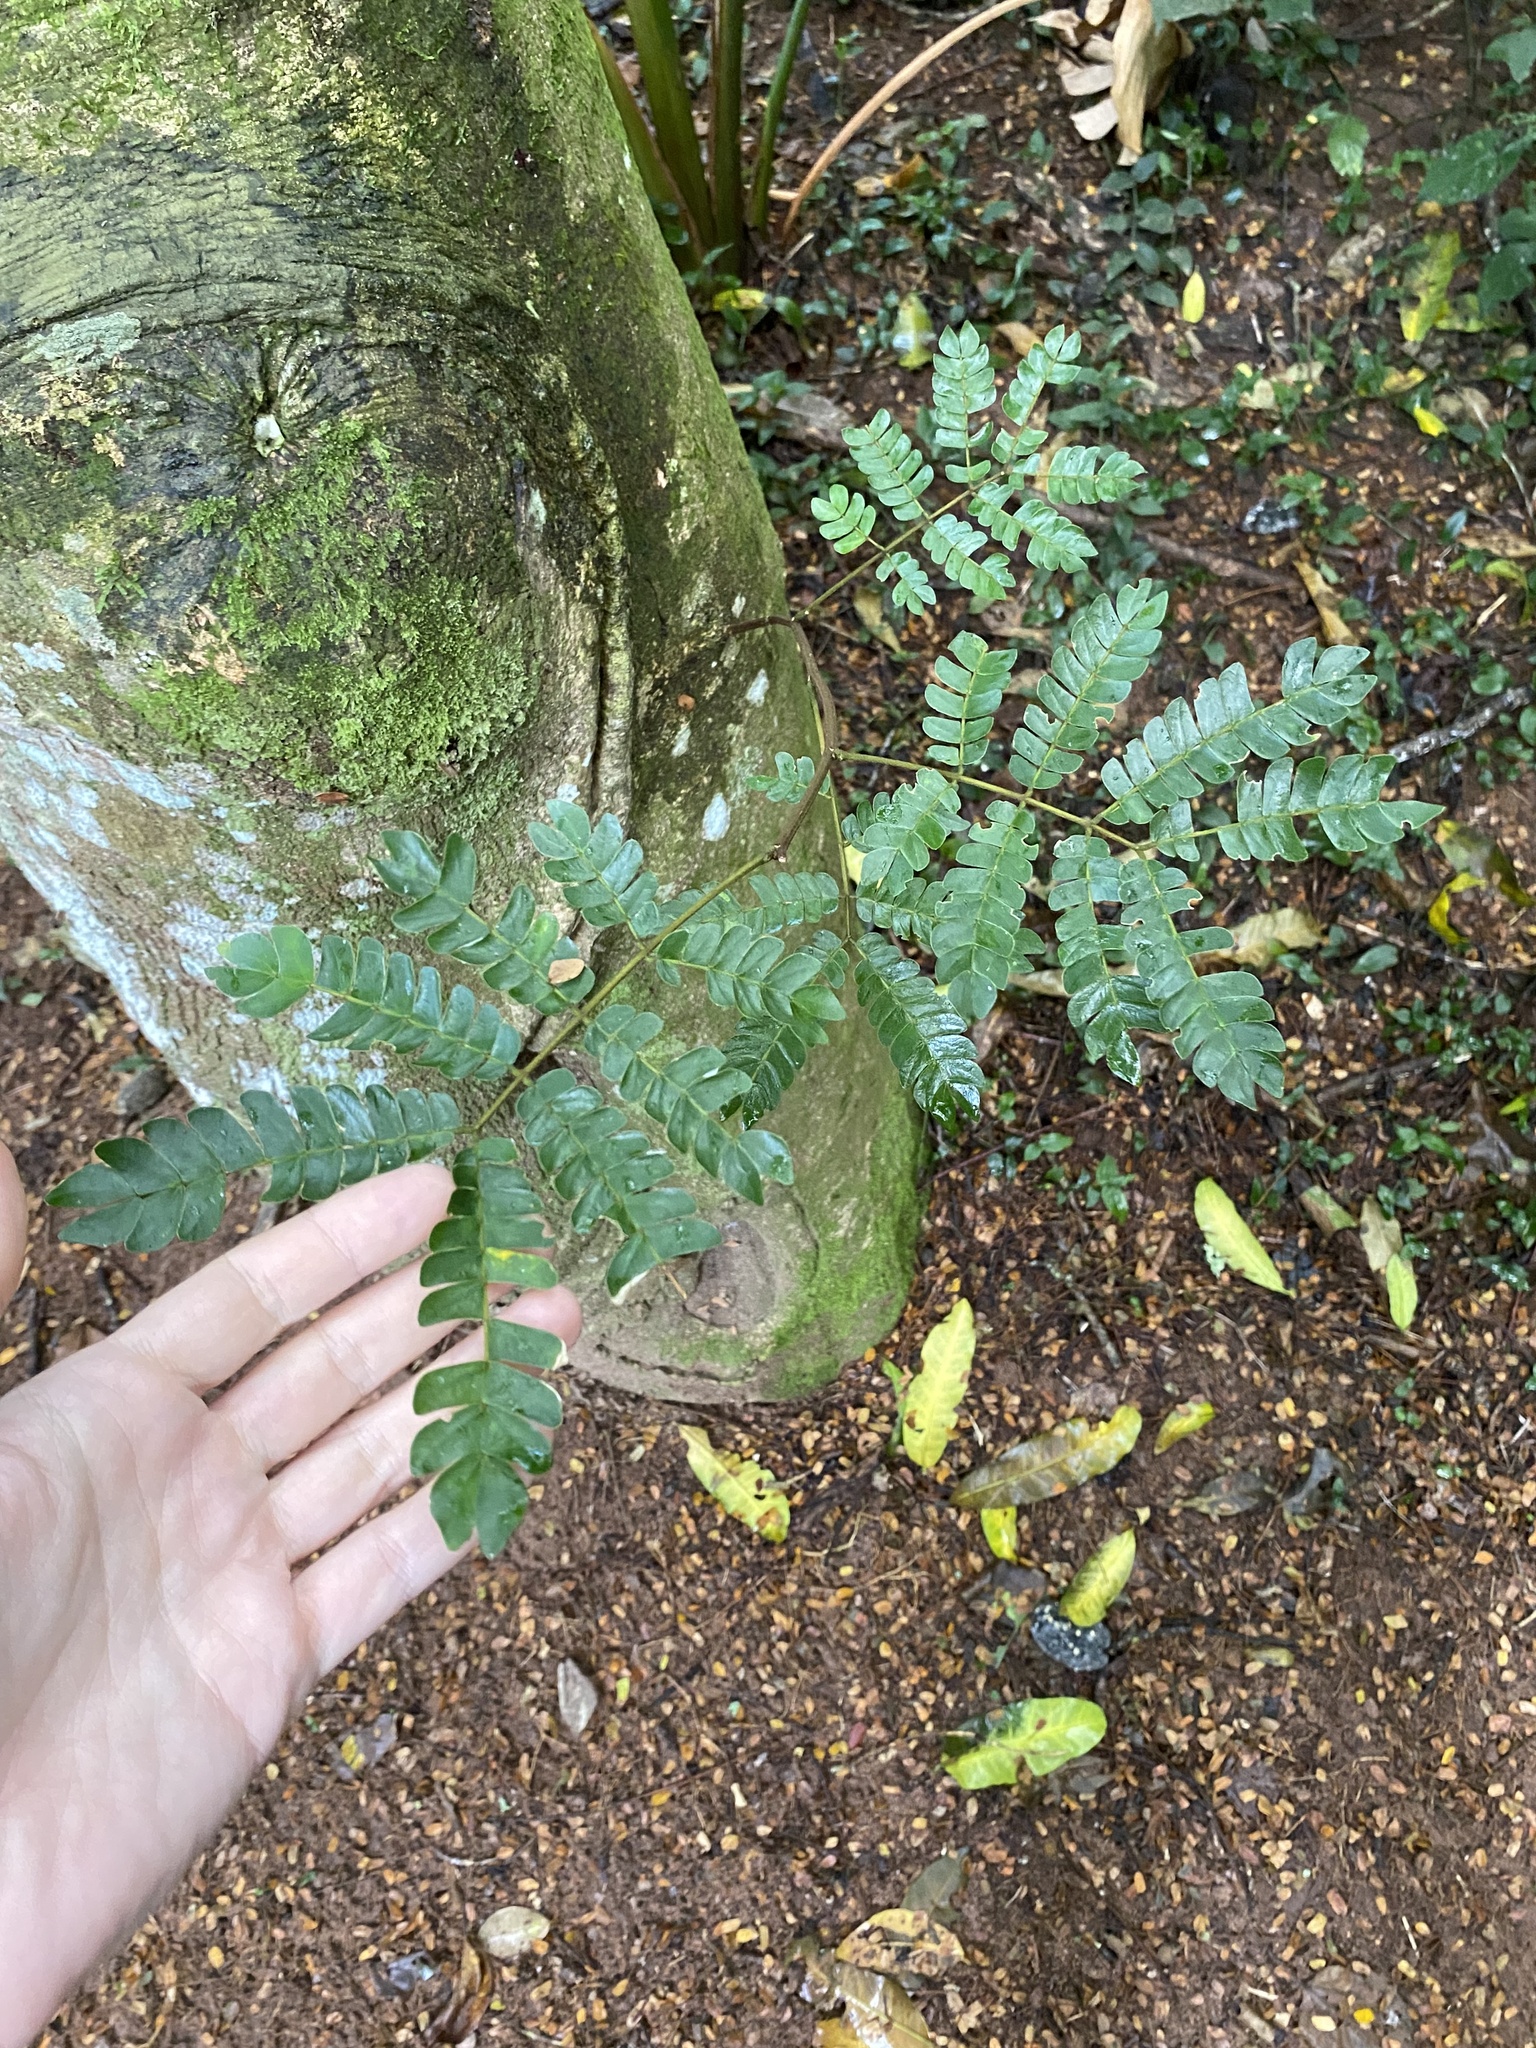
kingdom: Plantae
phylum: Tracheophyta
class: Magnoliopsida
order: Fabales
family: Fabaceae
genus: Albizia
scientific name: Albizia adianthifolia
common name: West african albizia
